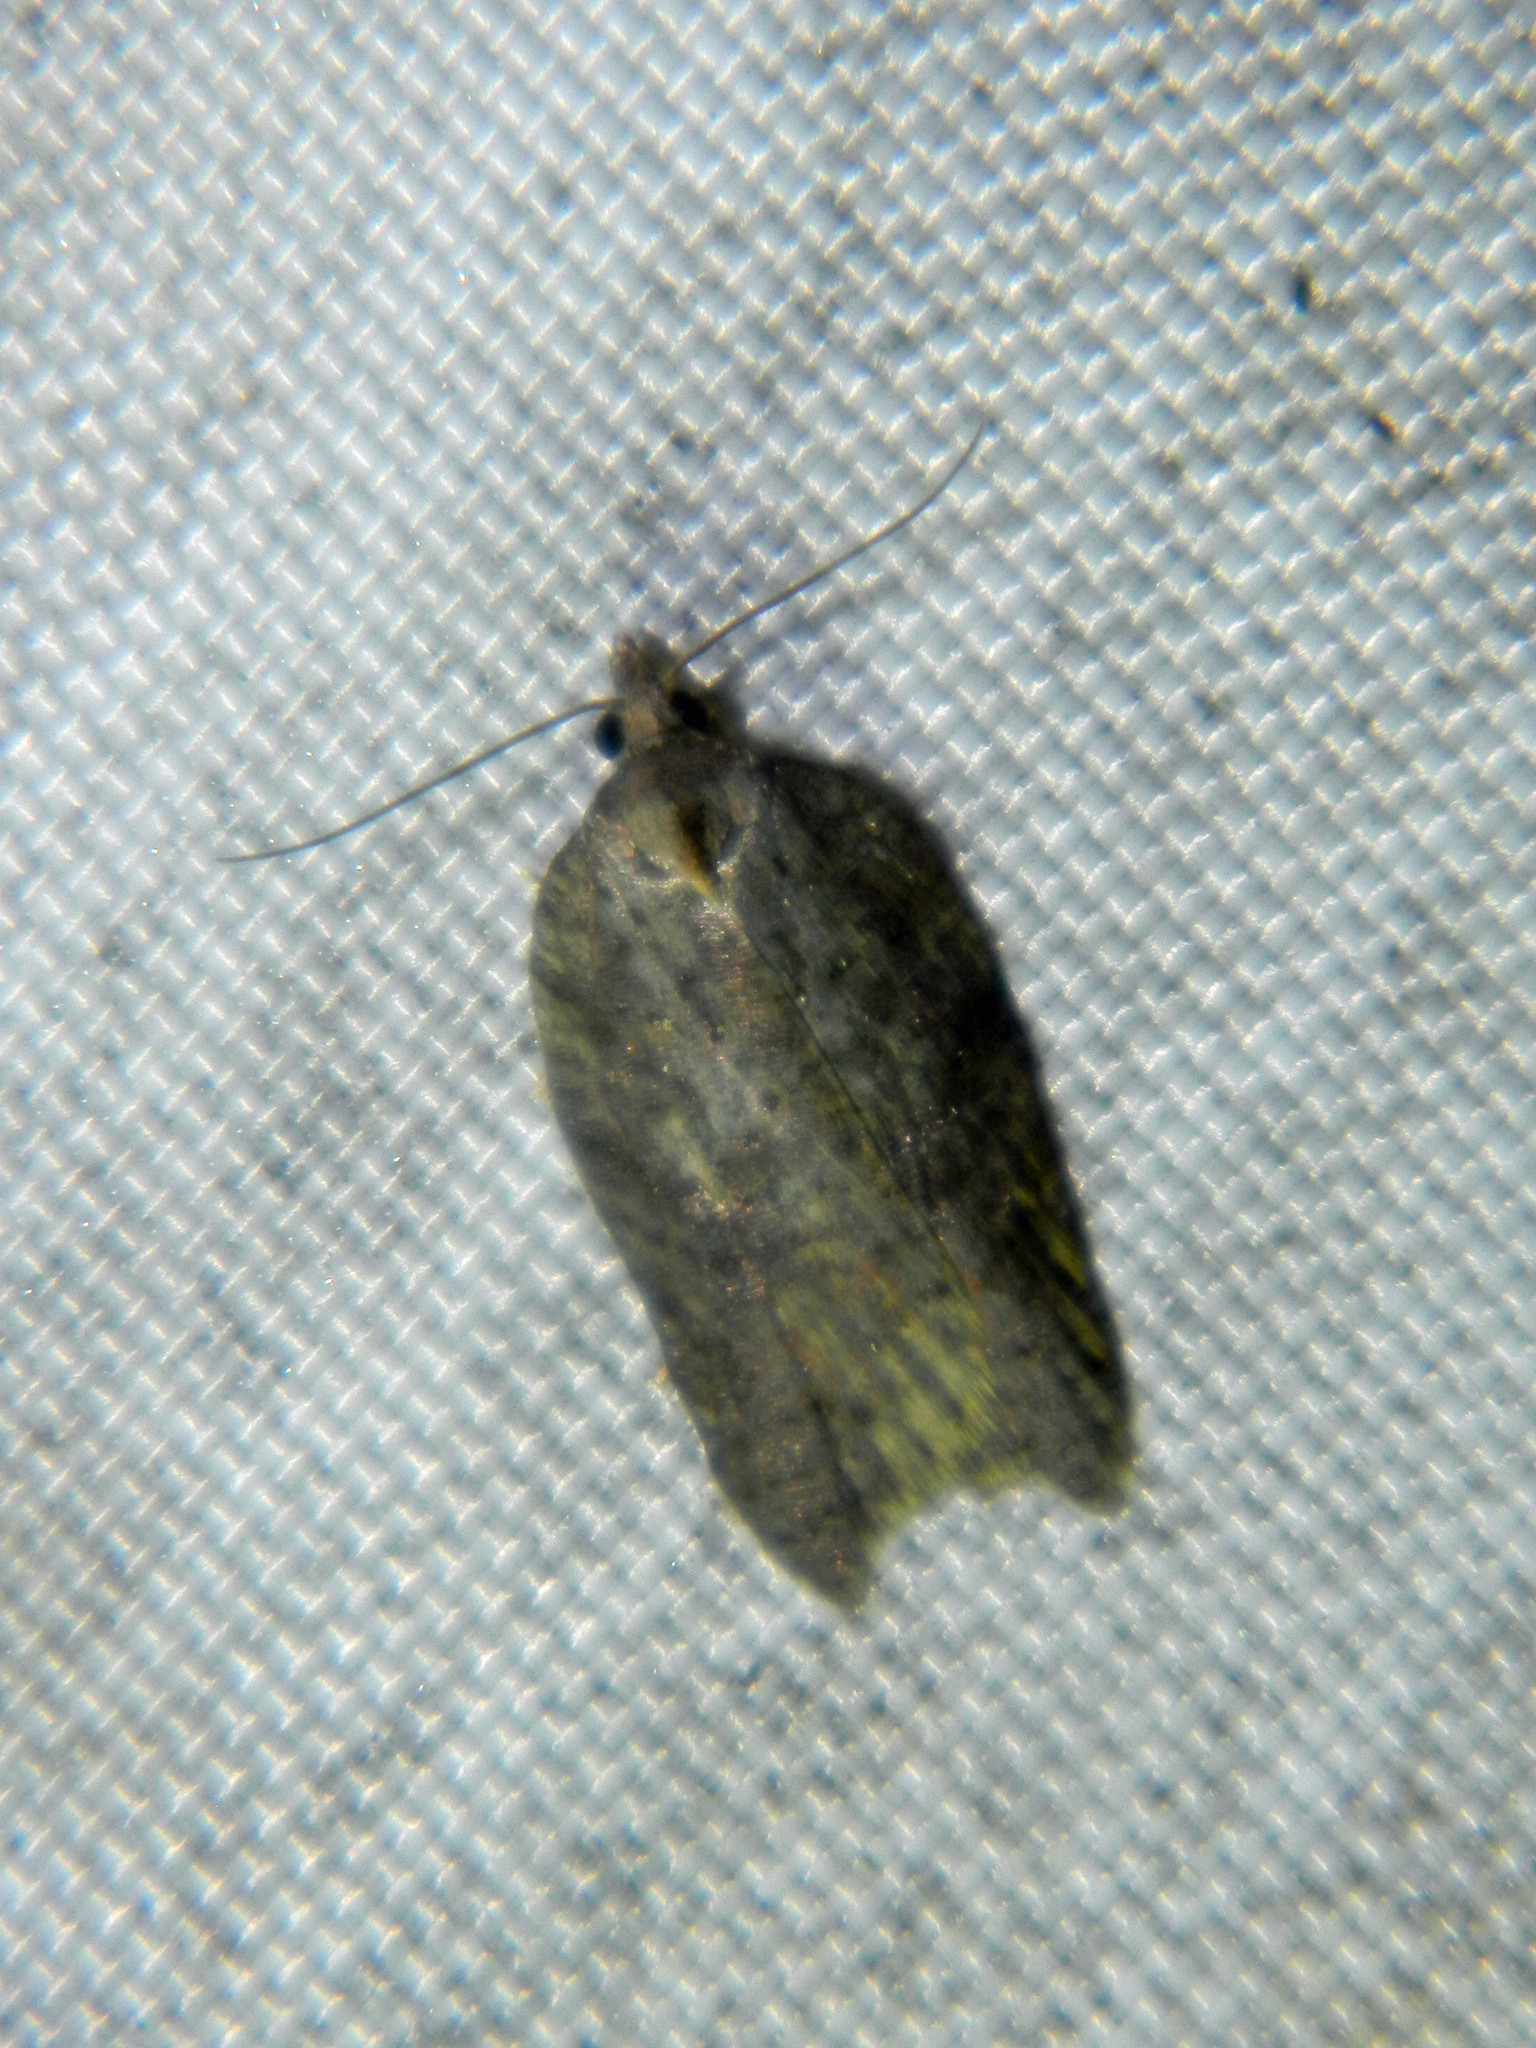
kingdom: Animalia
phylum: Arthropoda
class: Insecta
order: Lepidoptera
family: Tortricidae
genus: Acleris
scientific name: Acleris effractana
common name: Hook-winged tortrix moth
